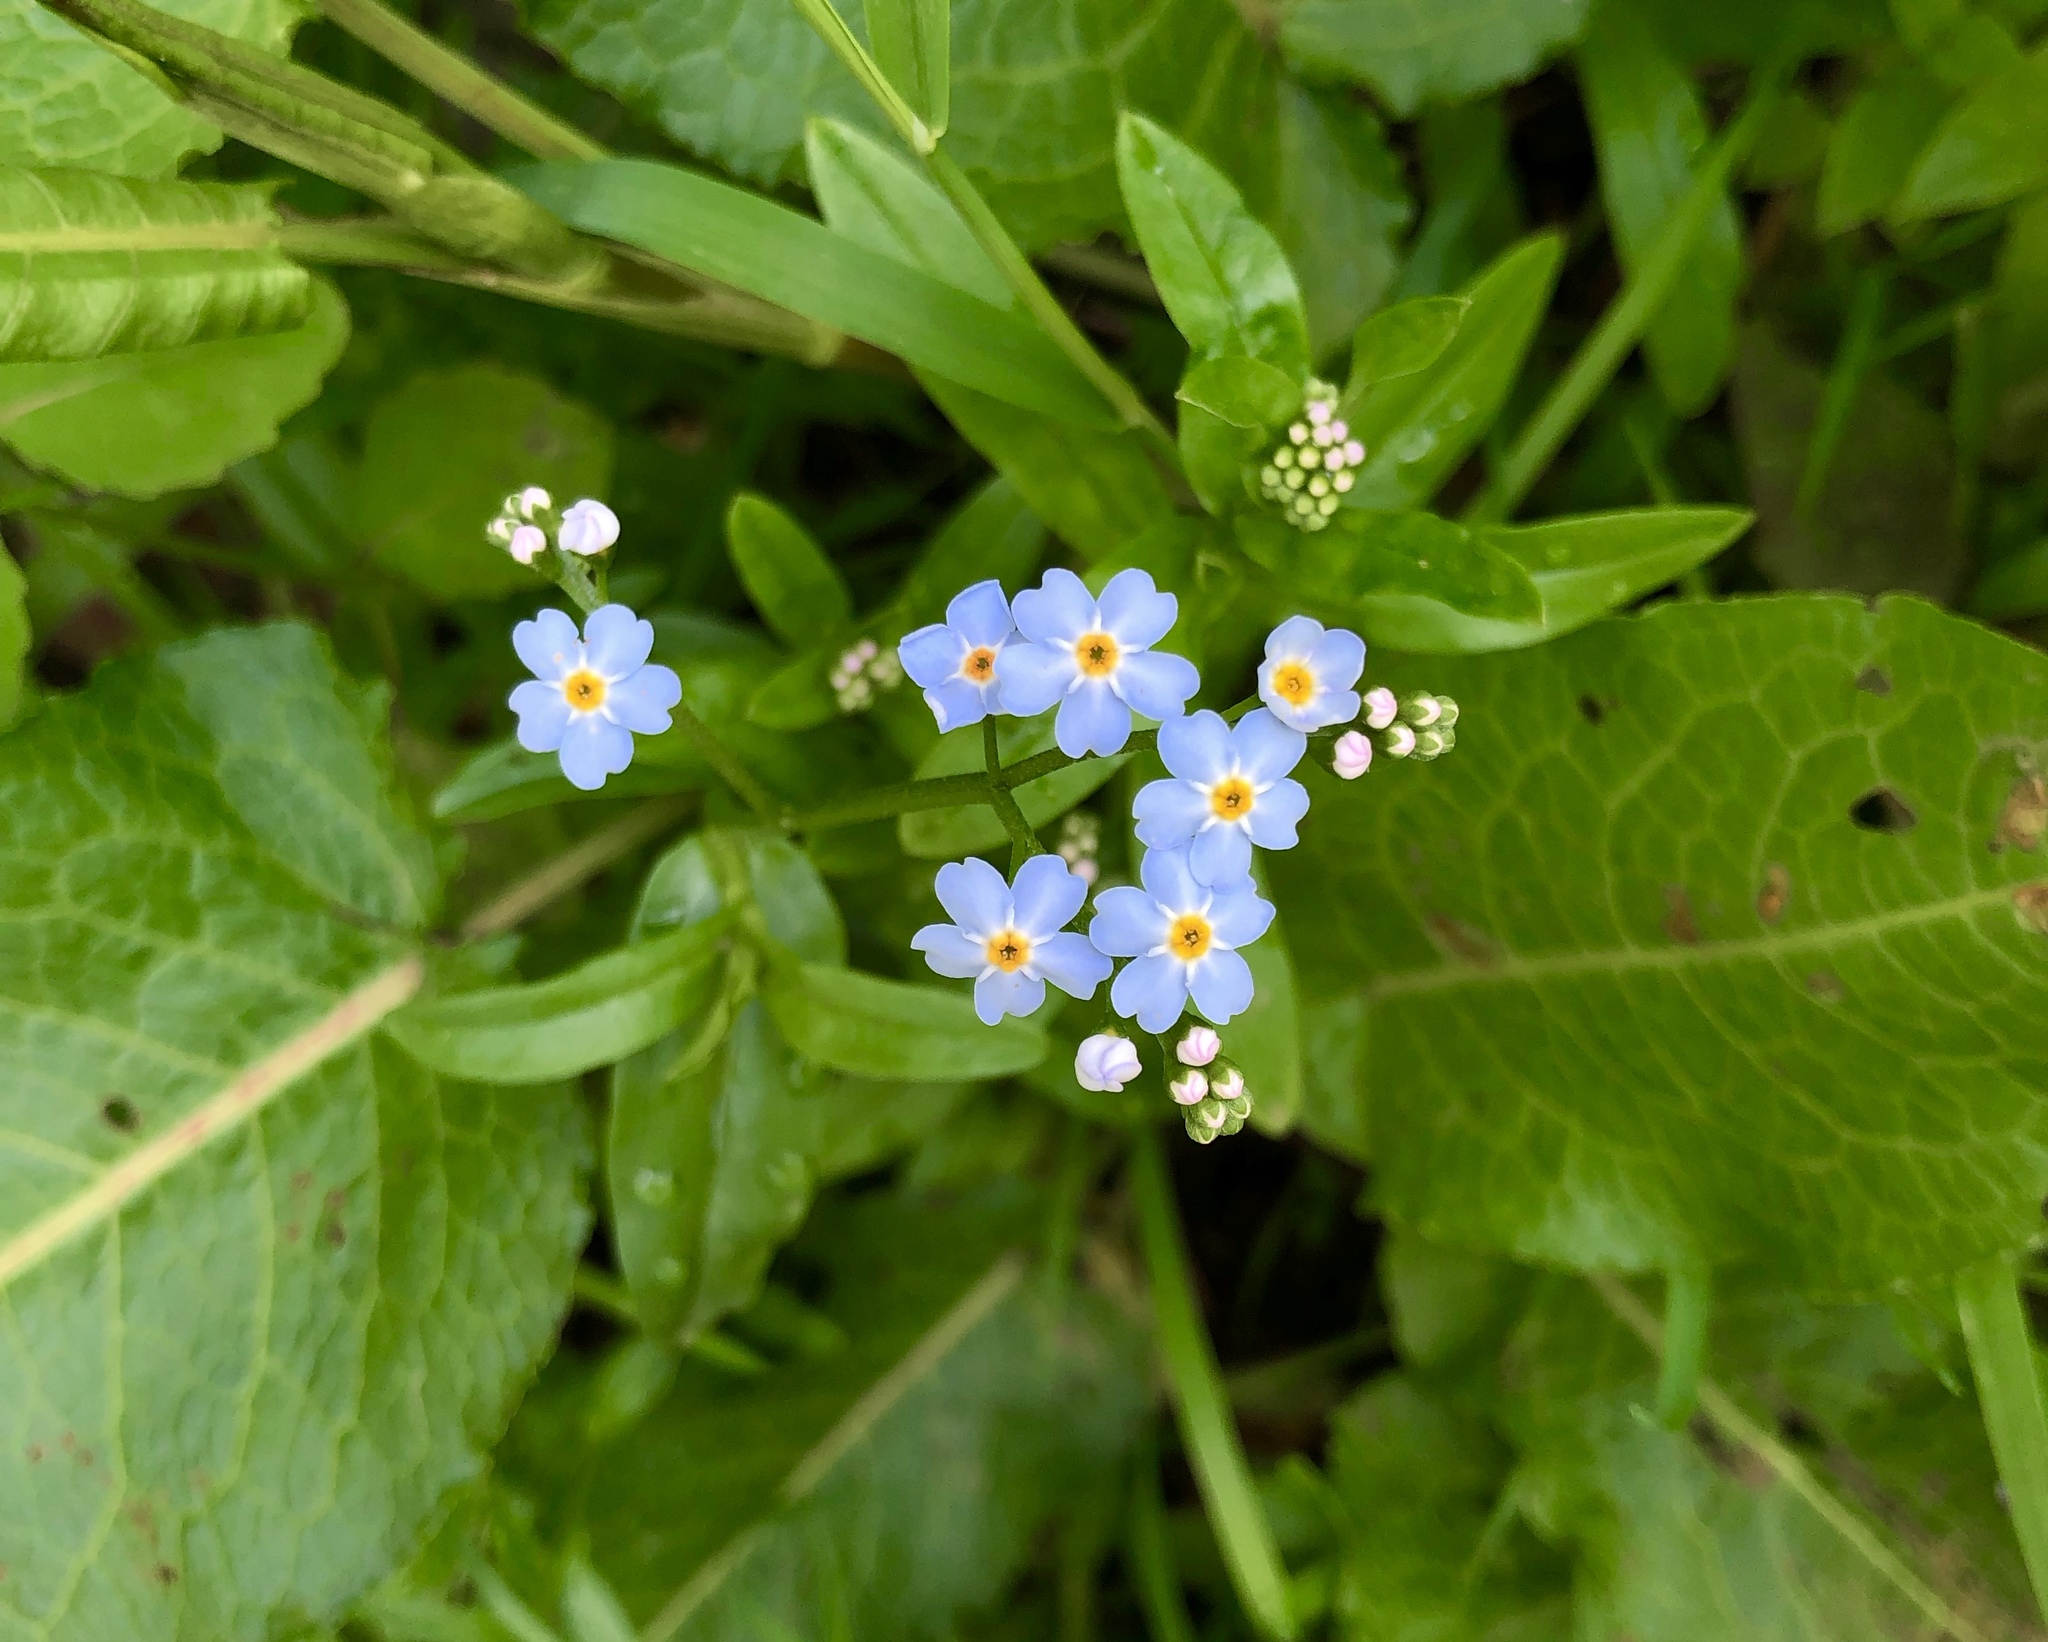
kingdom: Plantae
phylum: Tracheophyta
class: Magnoliopsida
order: Boraginales
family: Boraginaceae
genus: Myosotis
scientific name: Myosotis scorpioides
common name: Water forget-me-not
